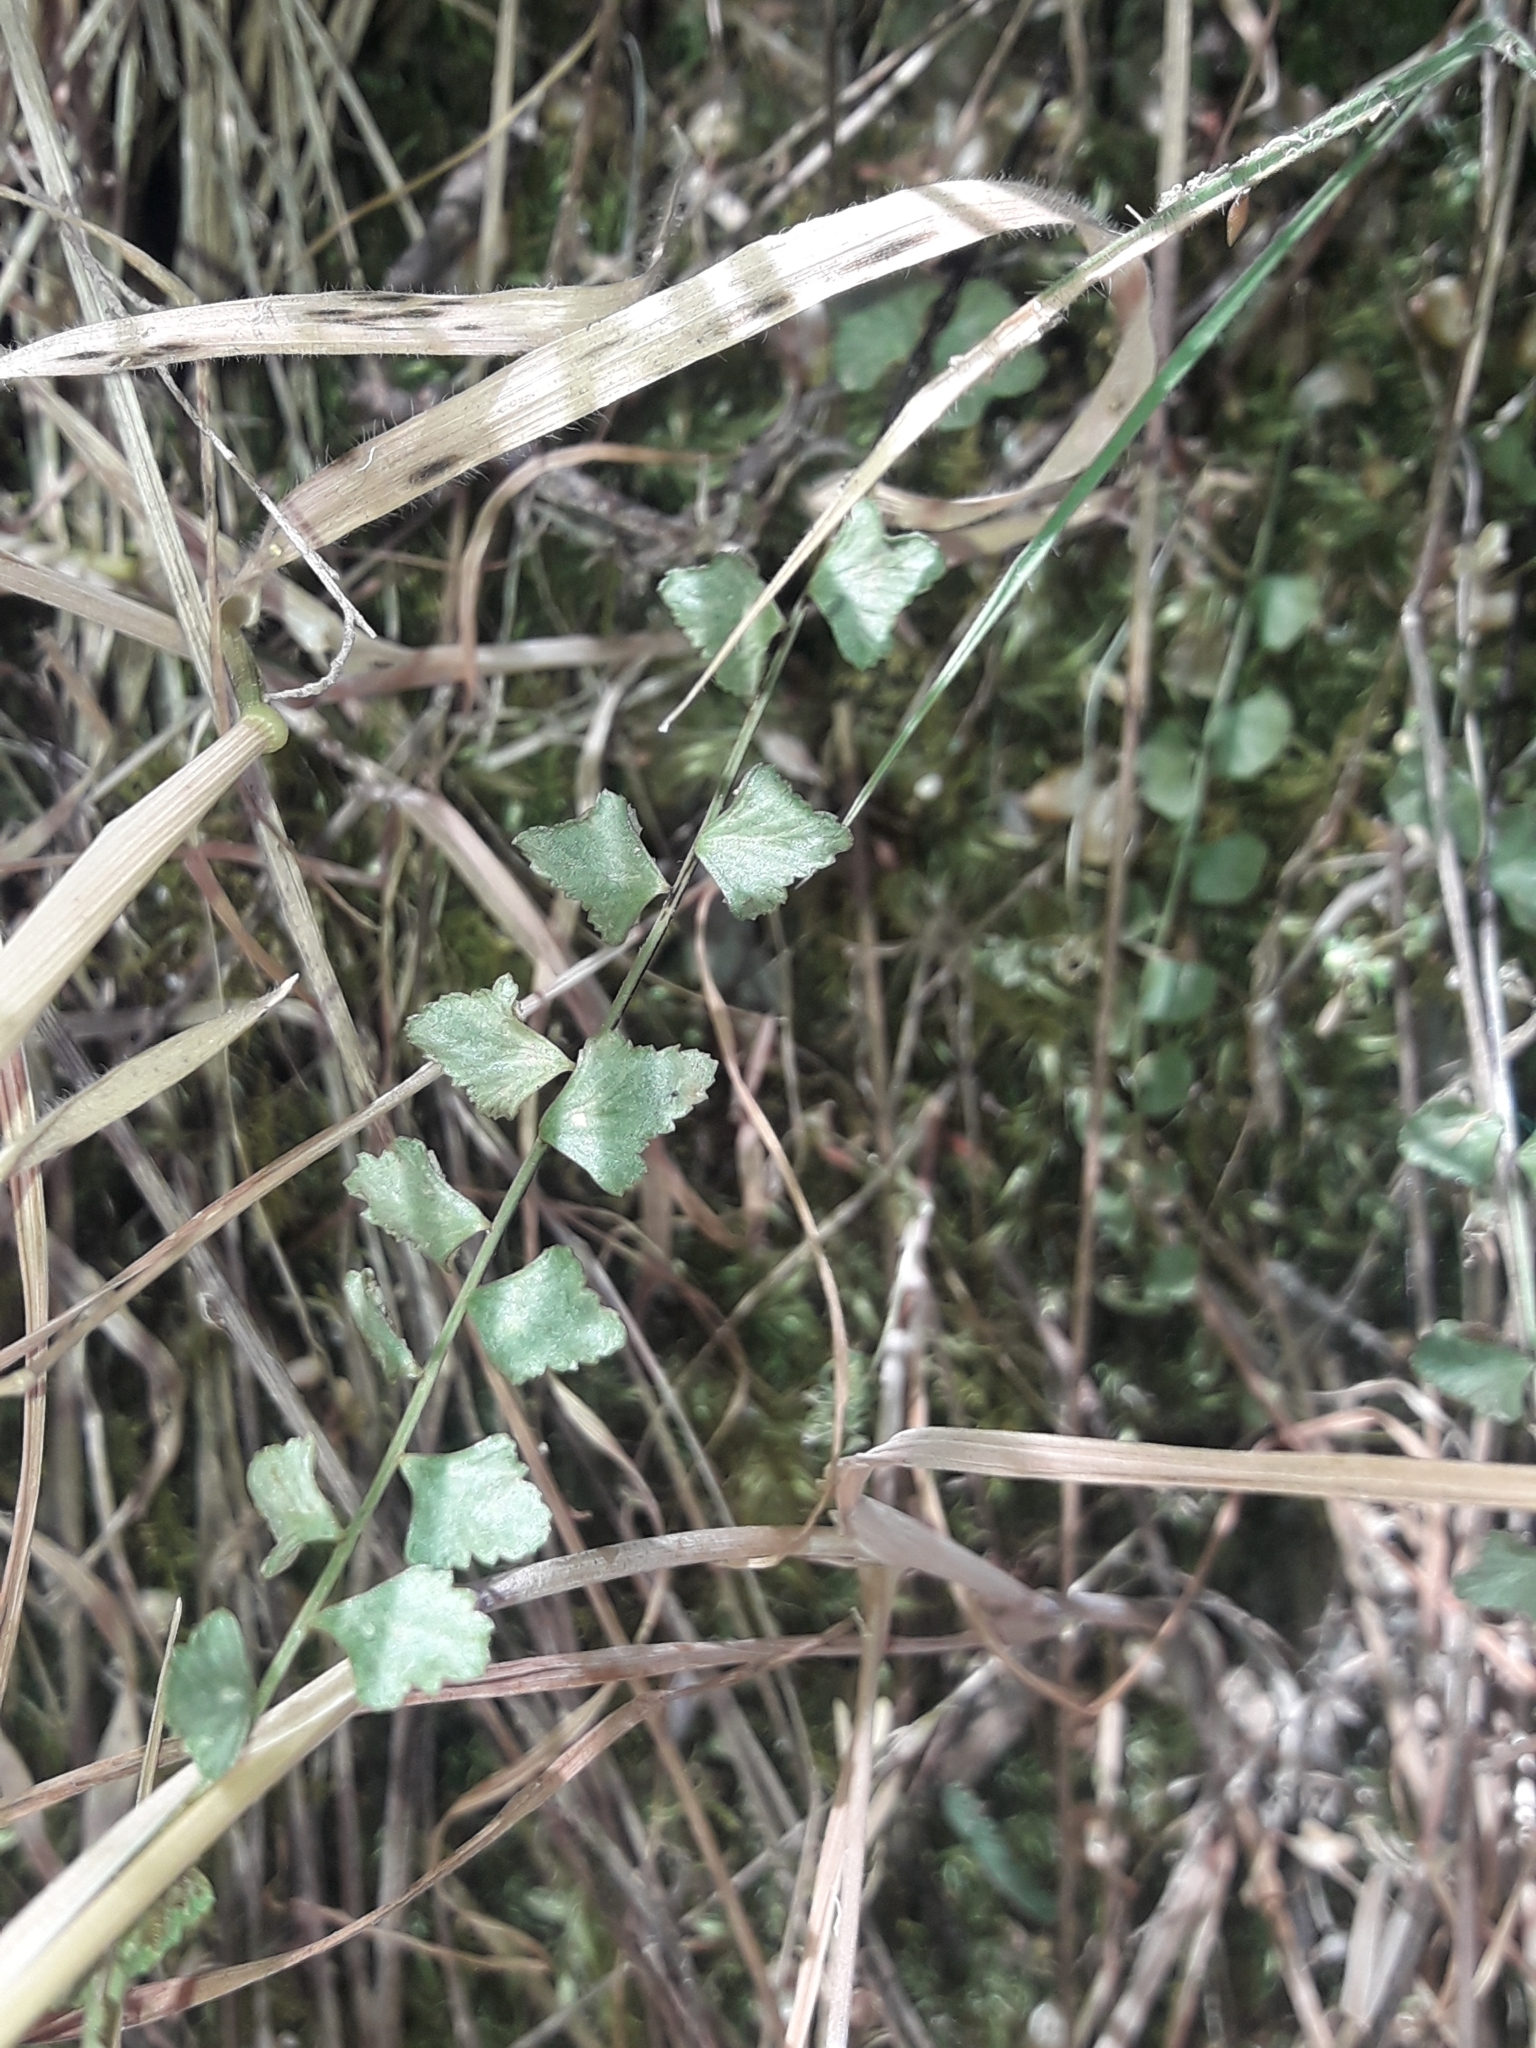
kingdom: Plantae
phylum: Tracheophyta
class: Polypodiopsida
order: Polypodiales
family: Aspleniaceae
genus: Asplenium
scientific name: Asplenium flabellifolium
